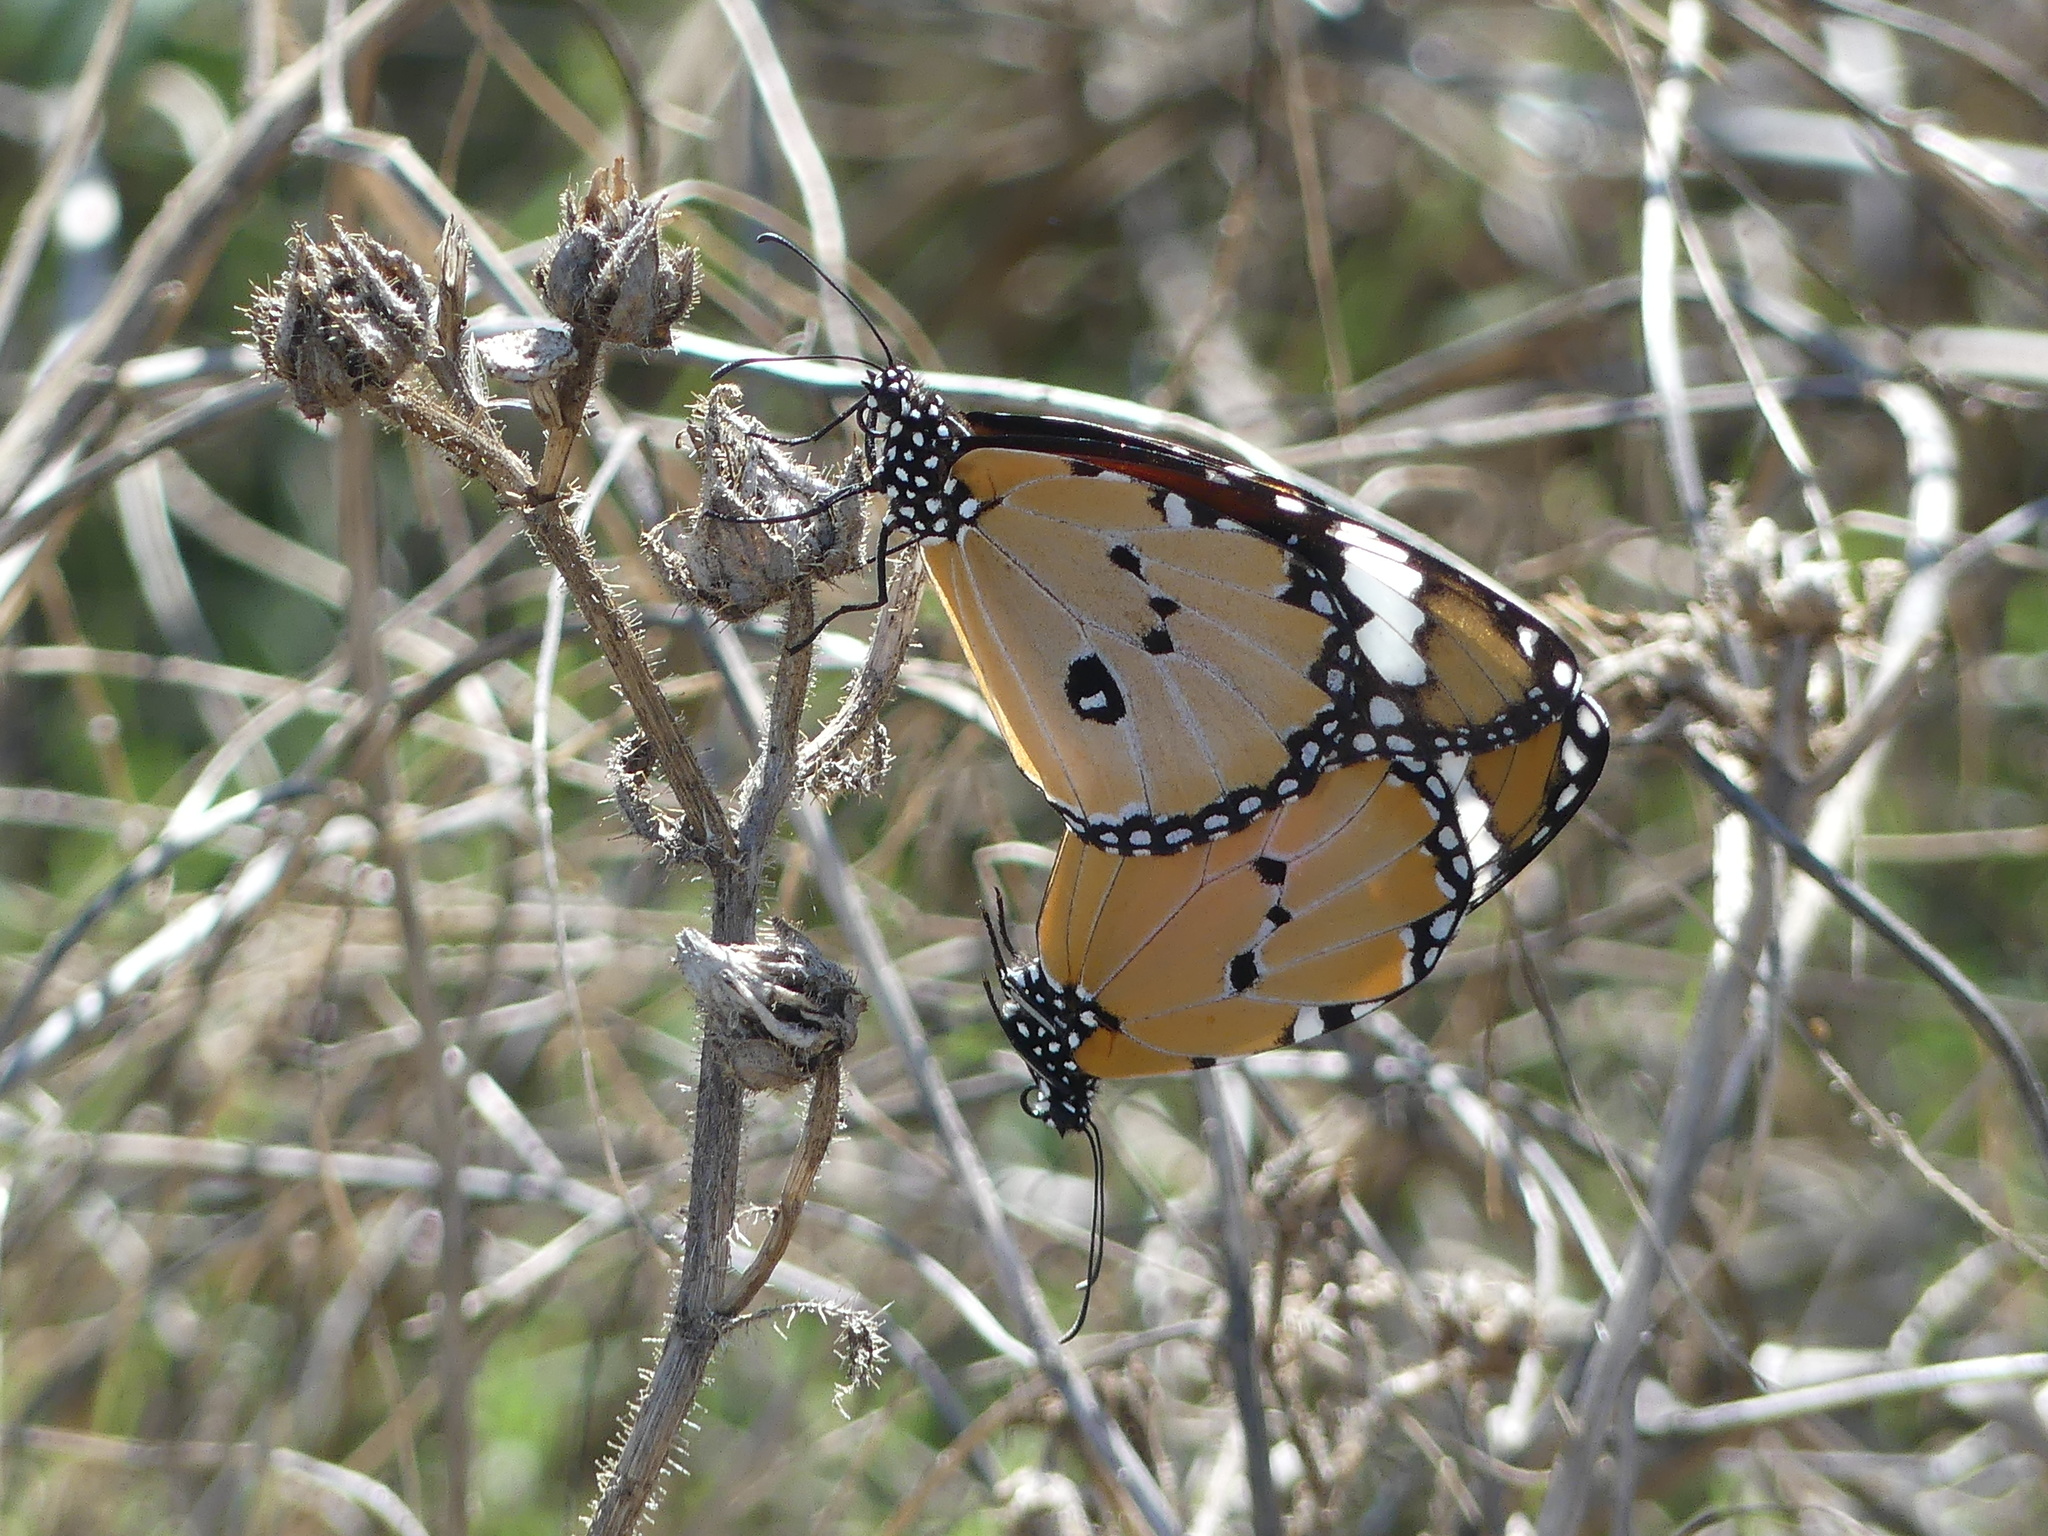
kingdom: Animalia
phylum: Arthropoda
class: Insecta
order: Lepidoptera
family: Nymphalidae
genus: Danaus
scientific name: Danaus chrysippus
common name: Plain tiger
